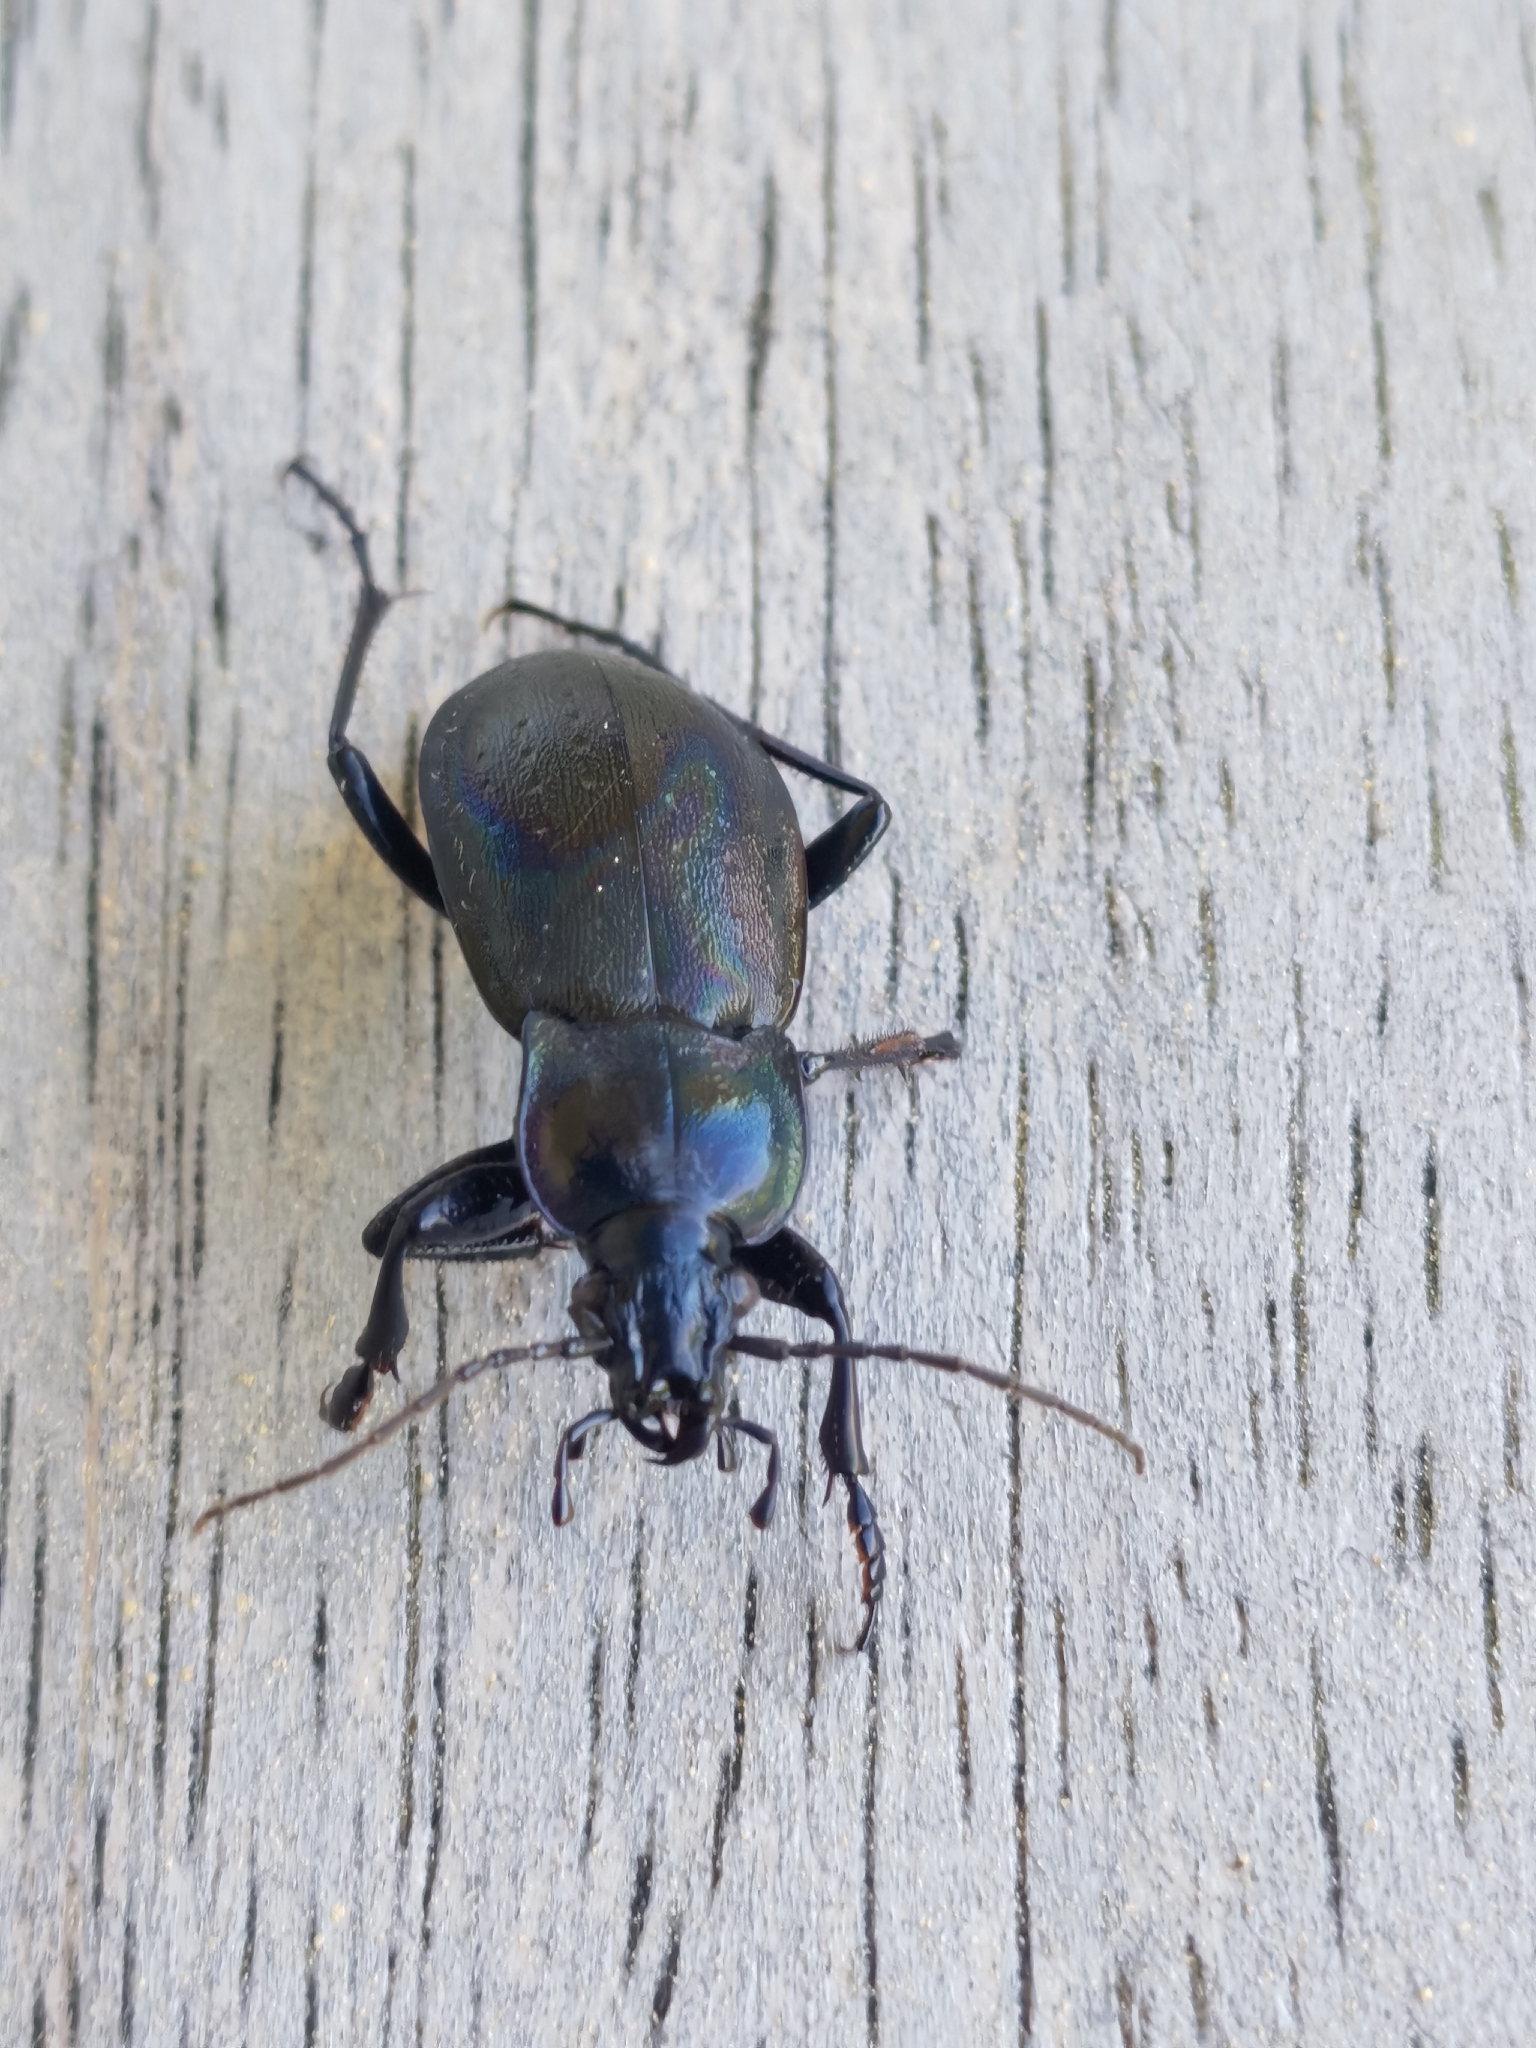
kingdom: Animalia
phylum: Arthropoda
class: Insecta
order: Coleoptera
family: Carabidae
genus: Carabus
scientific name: Carabus nemoralis
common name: European ground beetle
